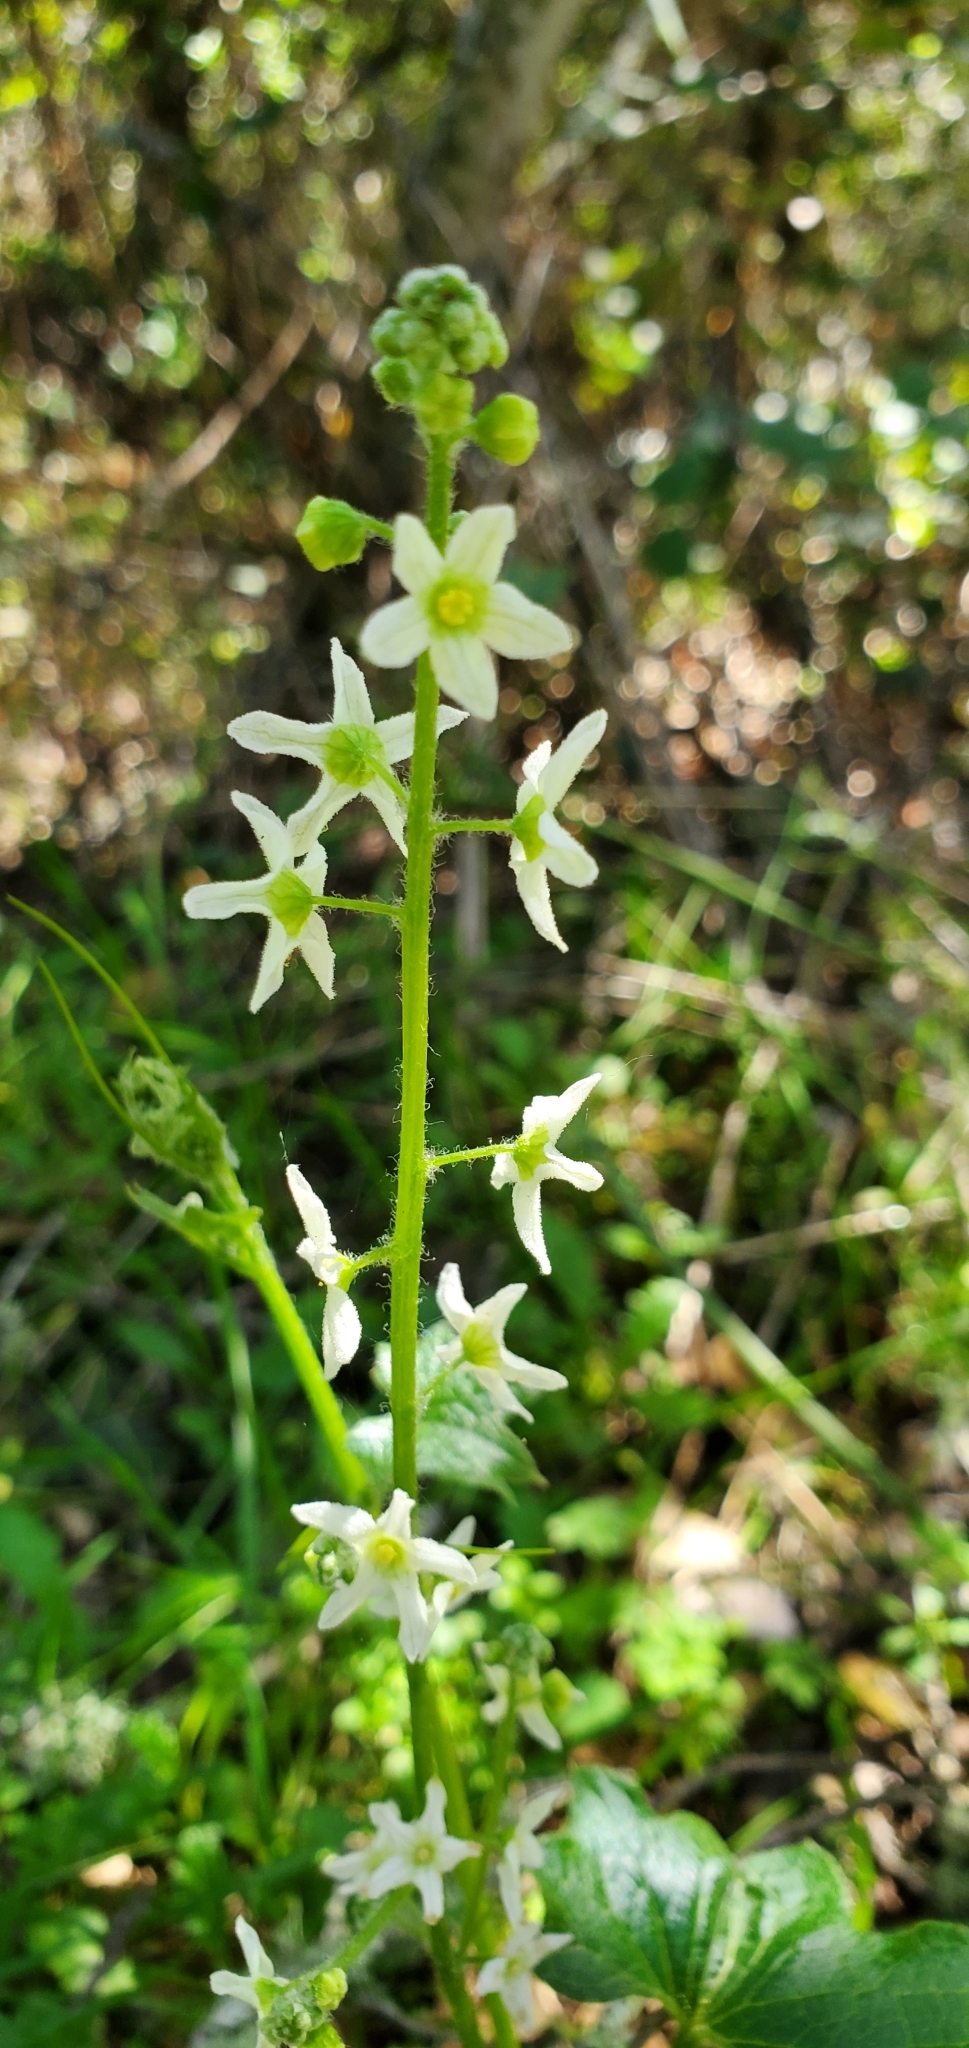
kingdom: Plantae
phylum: Tracheophyta
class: Magnoliopsida
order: Cucurbitales
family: Cucurbitaceae
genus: Marah
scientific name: Marah fabacea
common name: California manroot
